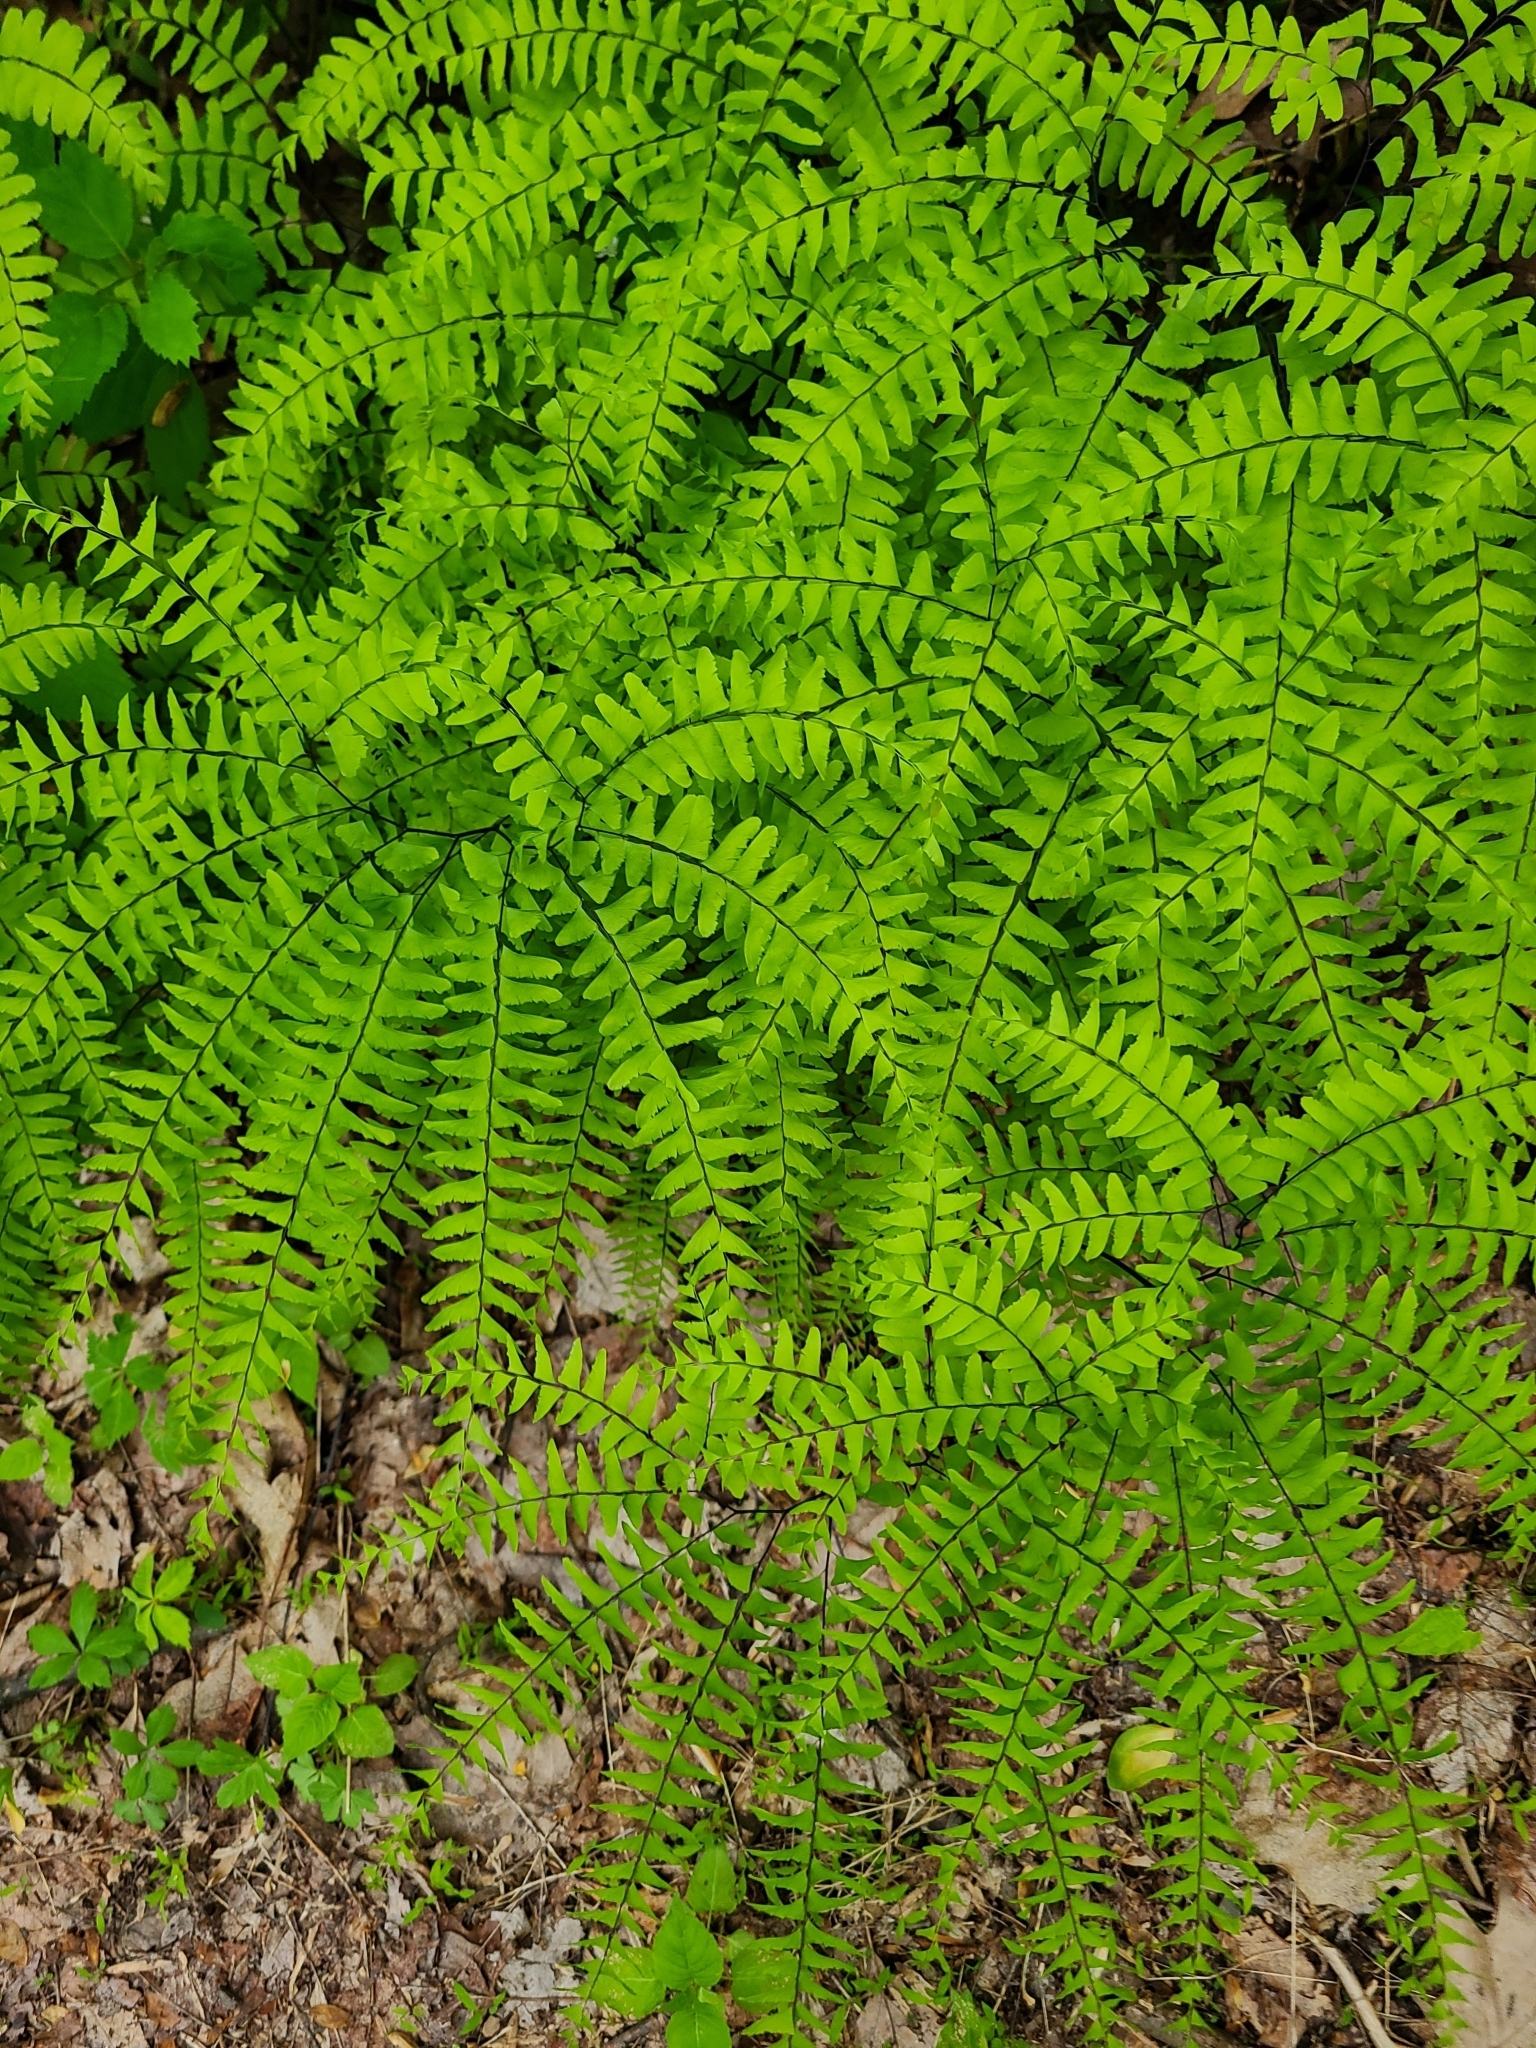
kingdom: Plantae
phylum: Tracheophyta
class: Polypodiopsida
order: Polypodiales
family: Pteridaceae
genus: Adiantum
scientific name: Adiantum pedatum
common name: Five-finger fern
